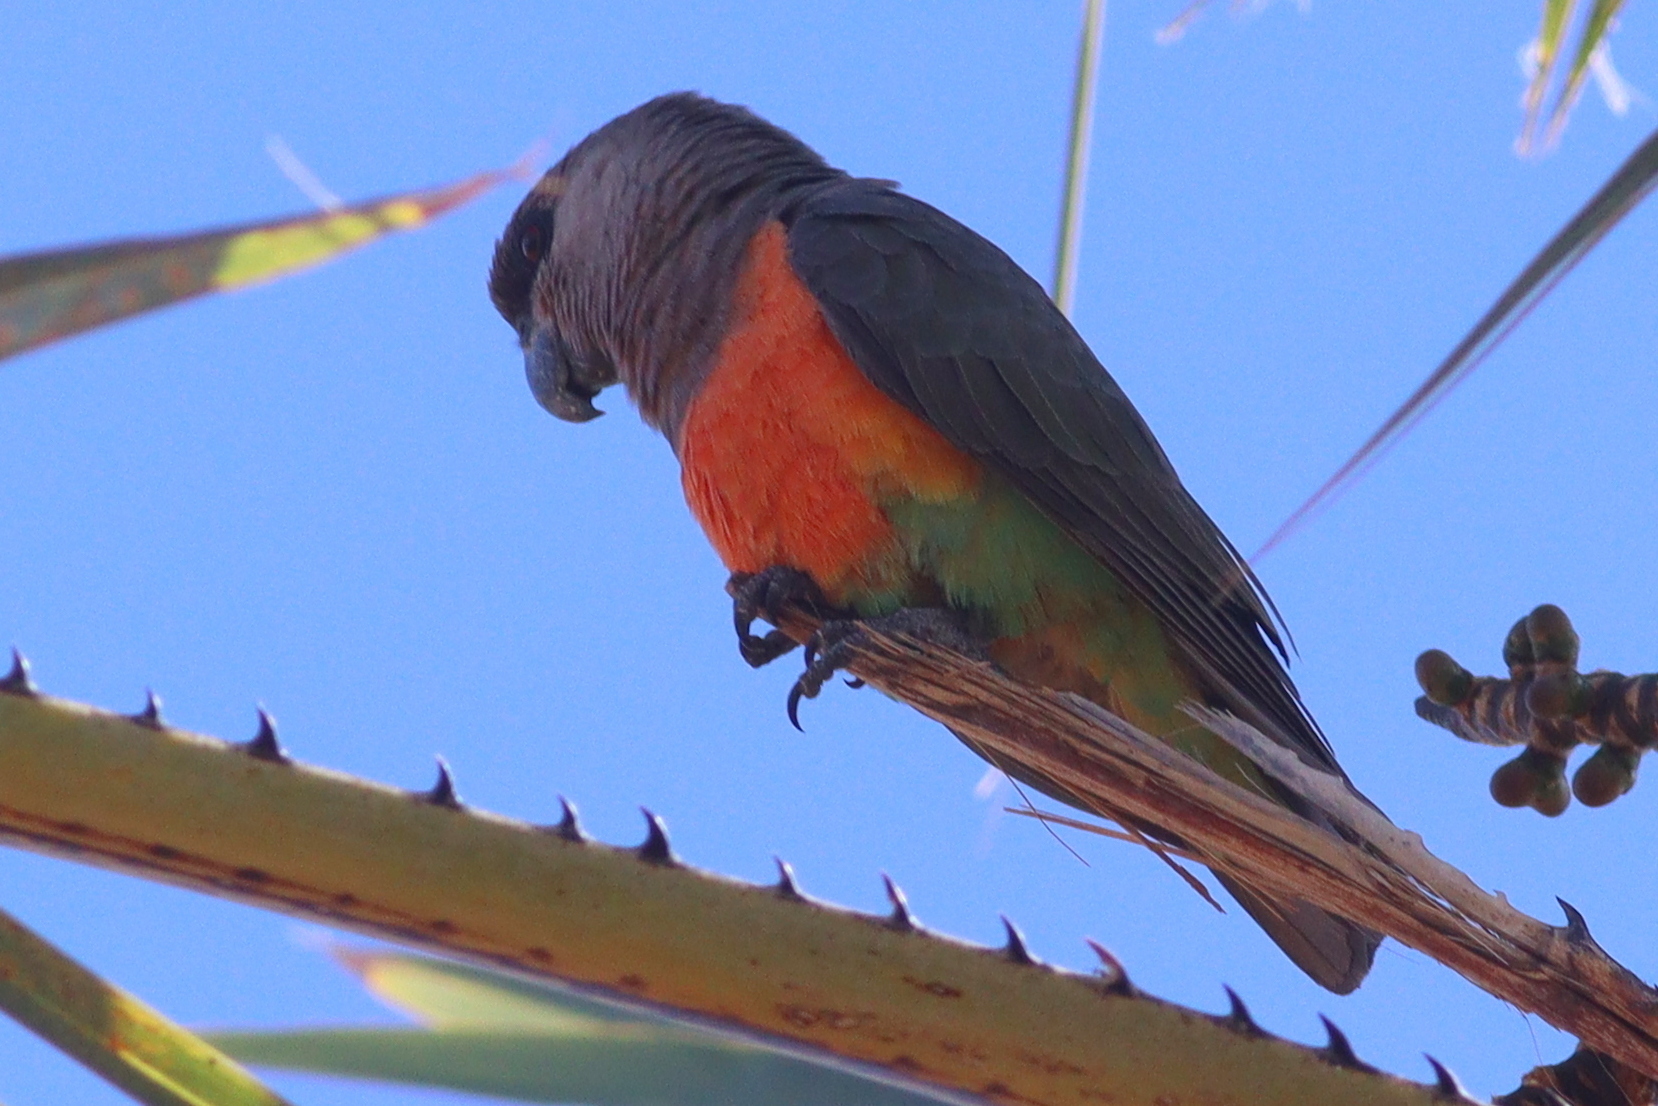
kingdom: Animalia
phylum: Chordata
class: Aves
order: Psittaciformes
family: Psittacidae
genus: Poicephalus
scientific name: Poicephalus rufiventris
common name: Red-bellied parrot
